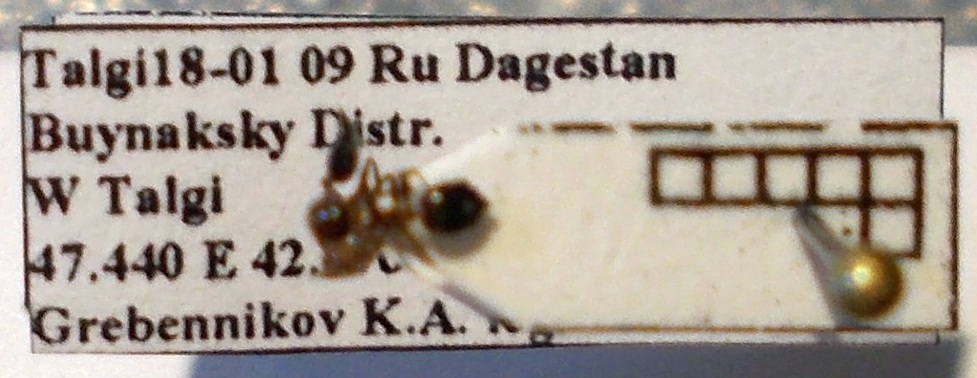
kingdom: Animalia
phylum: Arthropoda
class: Insecta
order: Hymenoptera
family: Formicidae
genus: Crematogaster
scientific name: Crematogaster schmidti
